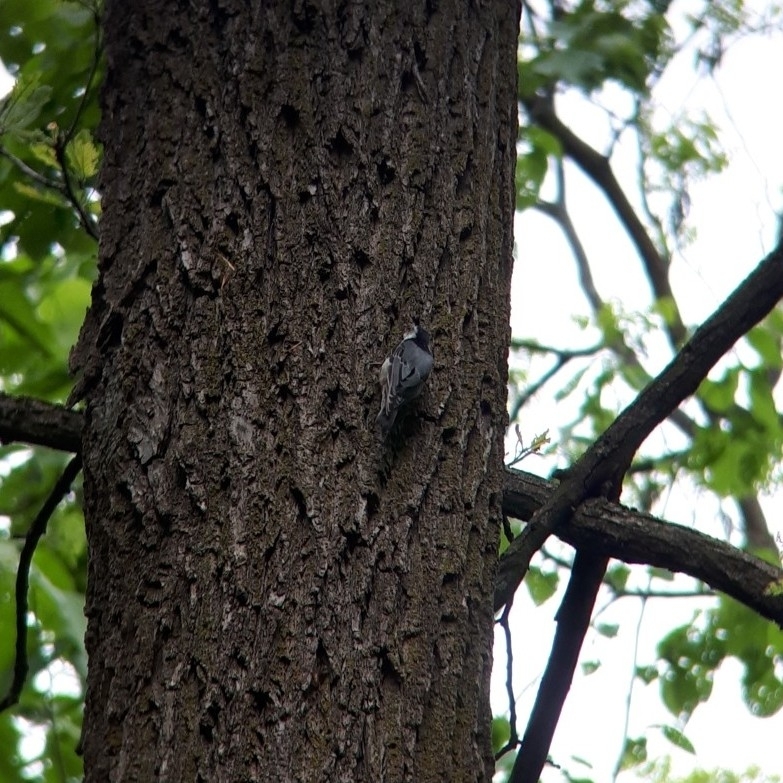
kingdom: Animalia
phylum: Chordata
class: Aves
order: Passeriformes
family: Sittidae
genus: Sitta
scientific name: Sitta carolinensis
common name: White-breasted nuthatch
